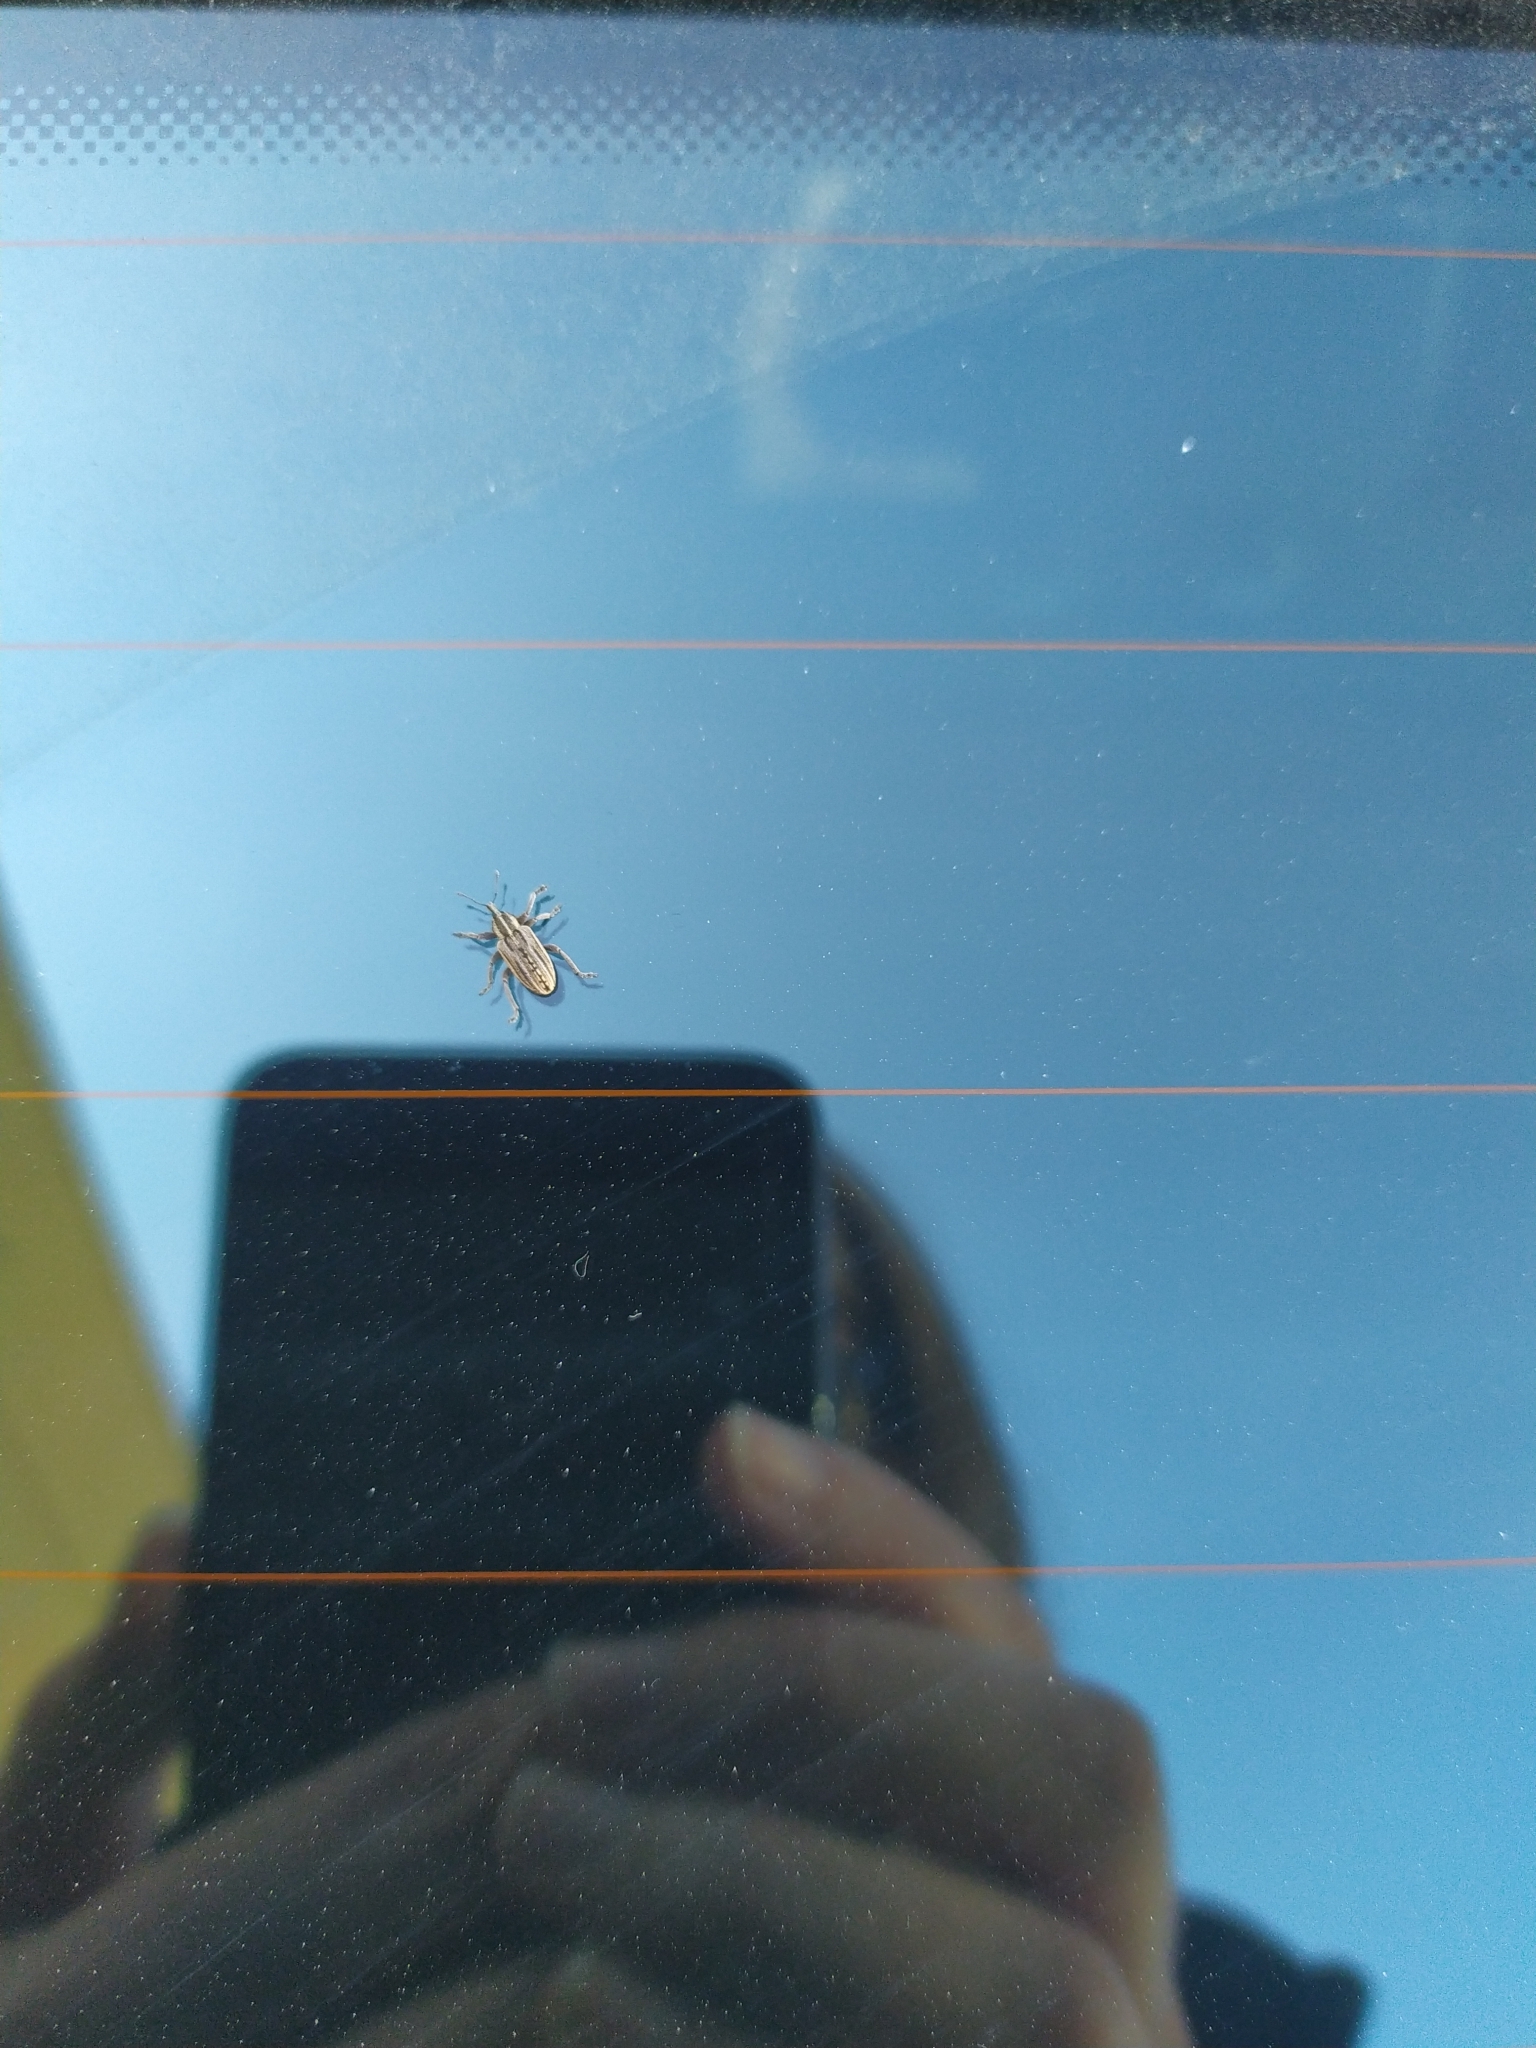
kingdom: Animalia
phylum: Arthropoda
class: Insecta
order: Coleoptera
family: Curculionidae
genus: Hypera
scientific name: Hypera arator
